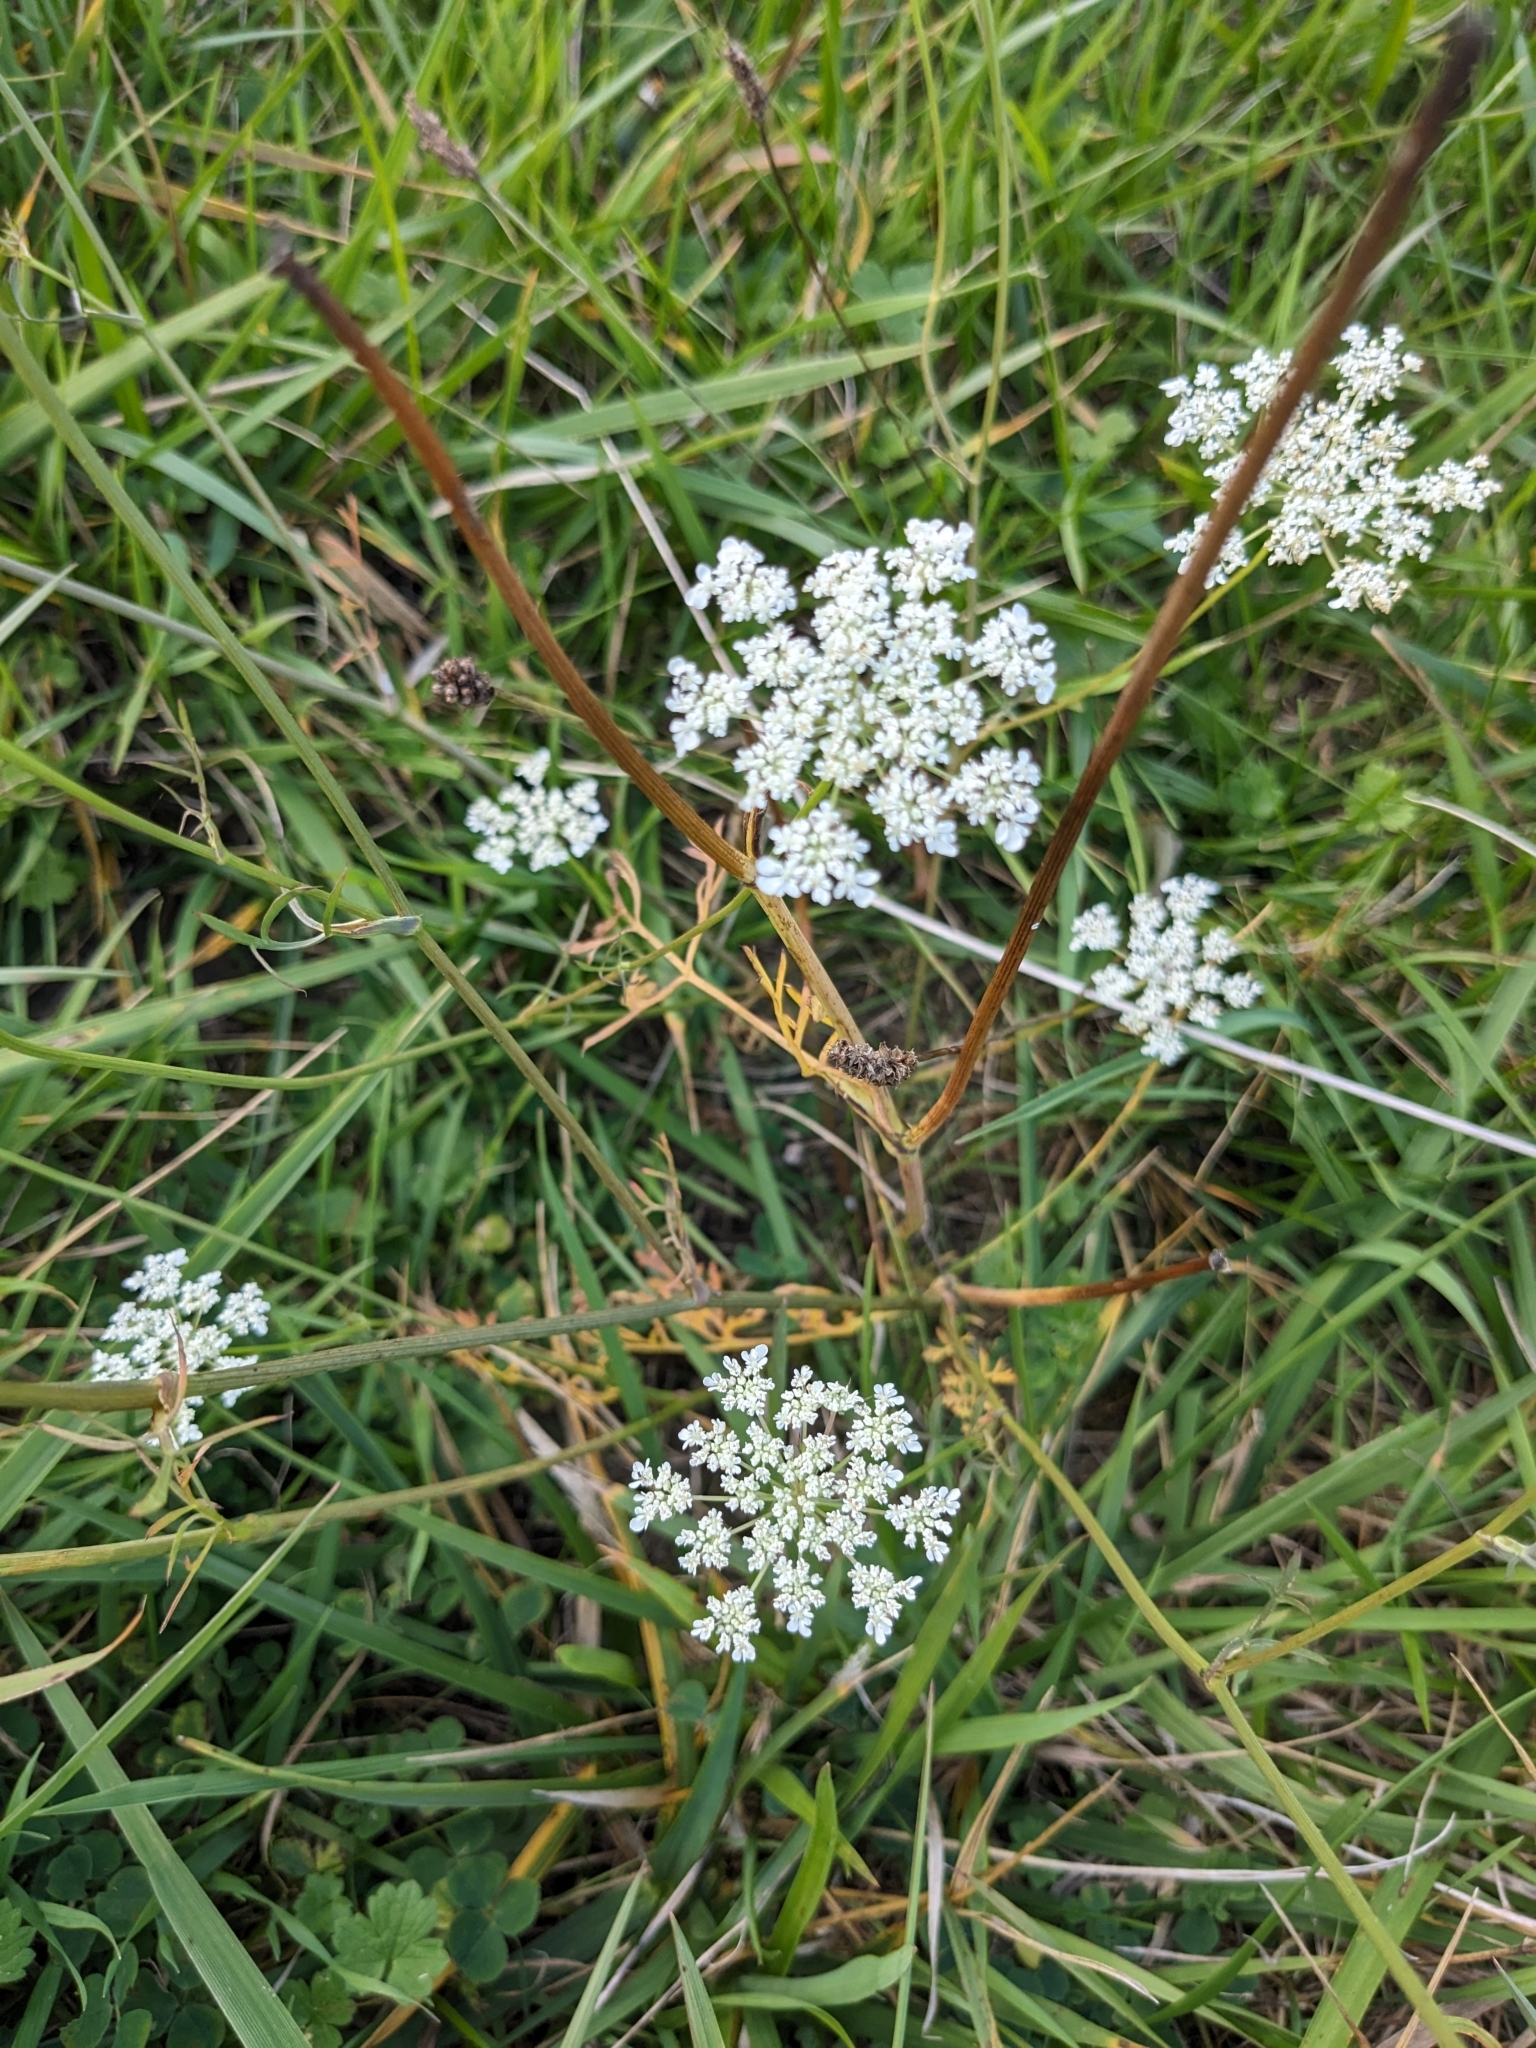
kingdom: Plantae
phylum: Tracheophyta
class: Magnoliopsida
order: Apiales
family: Apiaceae
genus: Daucus
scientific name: Daucus carota
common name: Wild carrot
